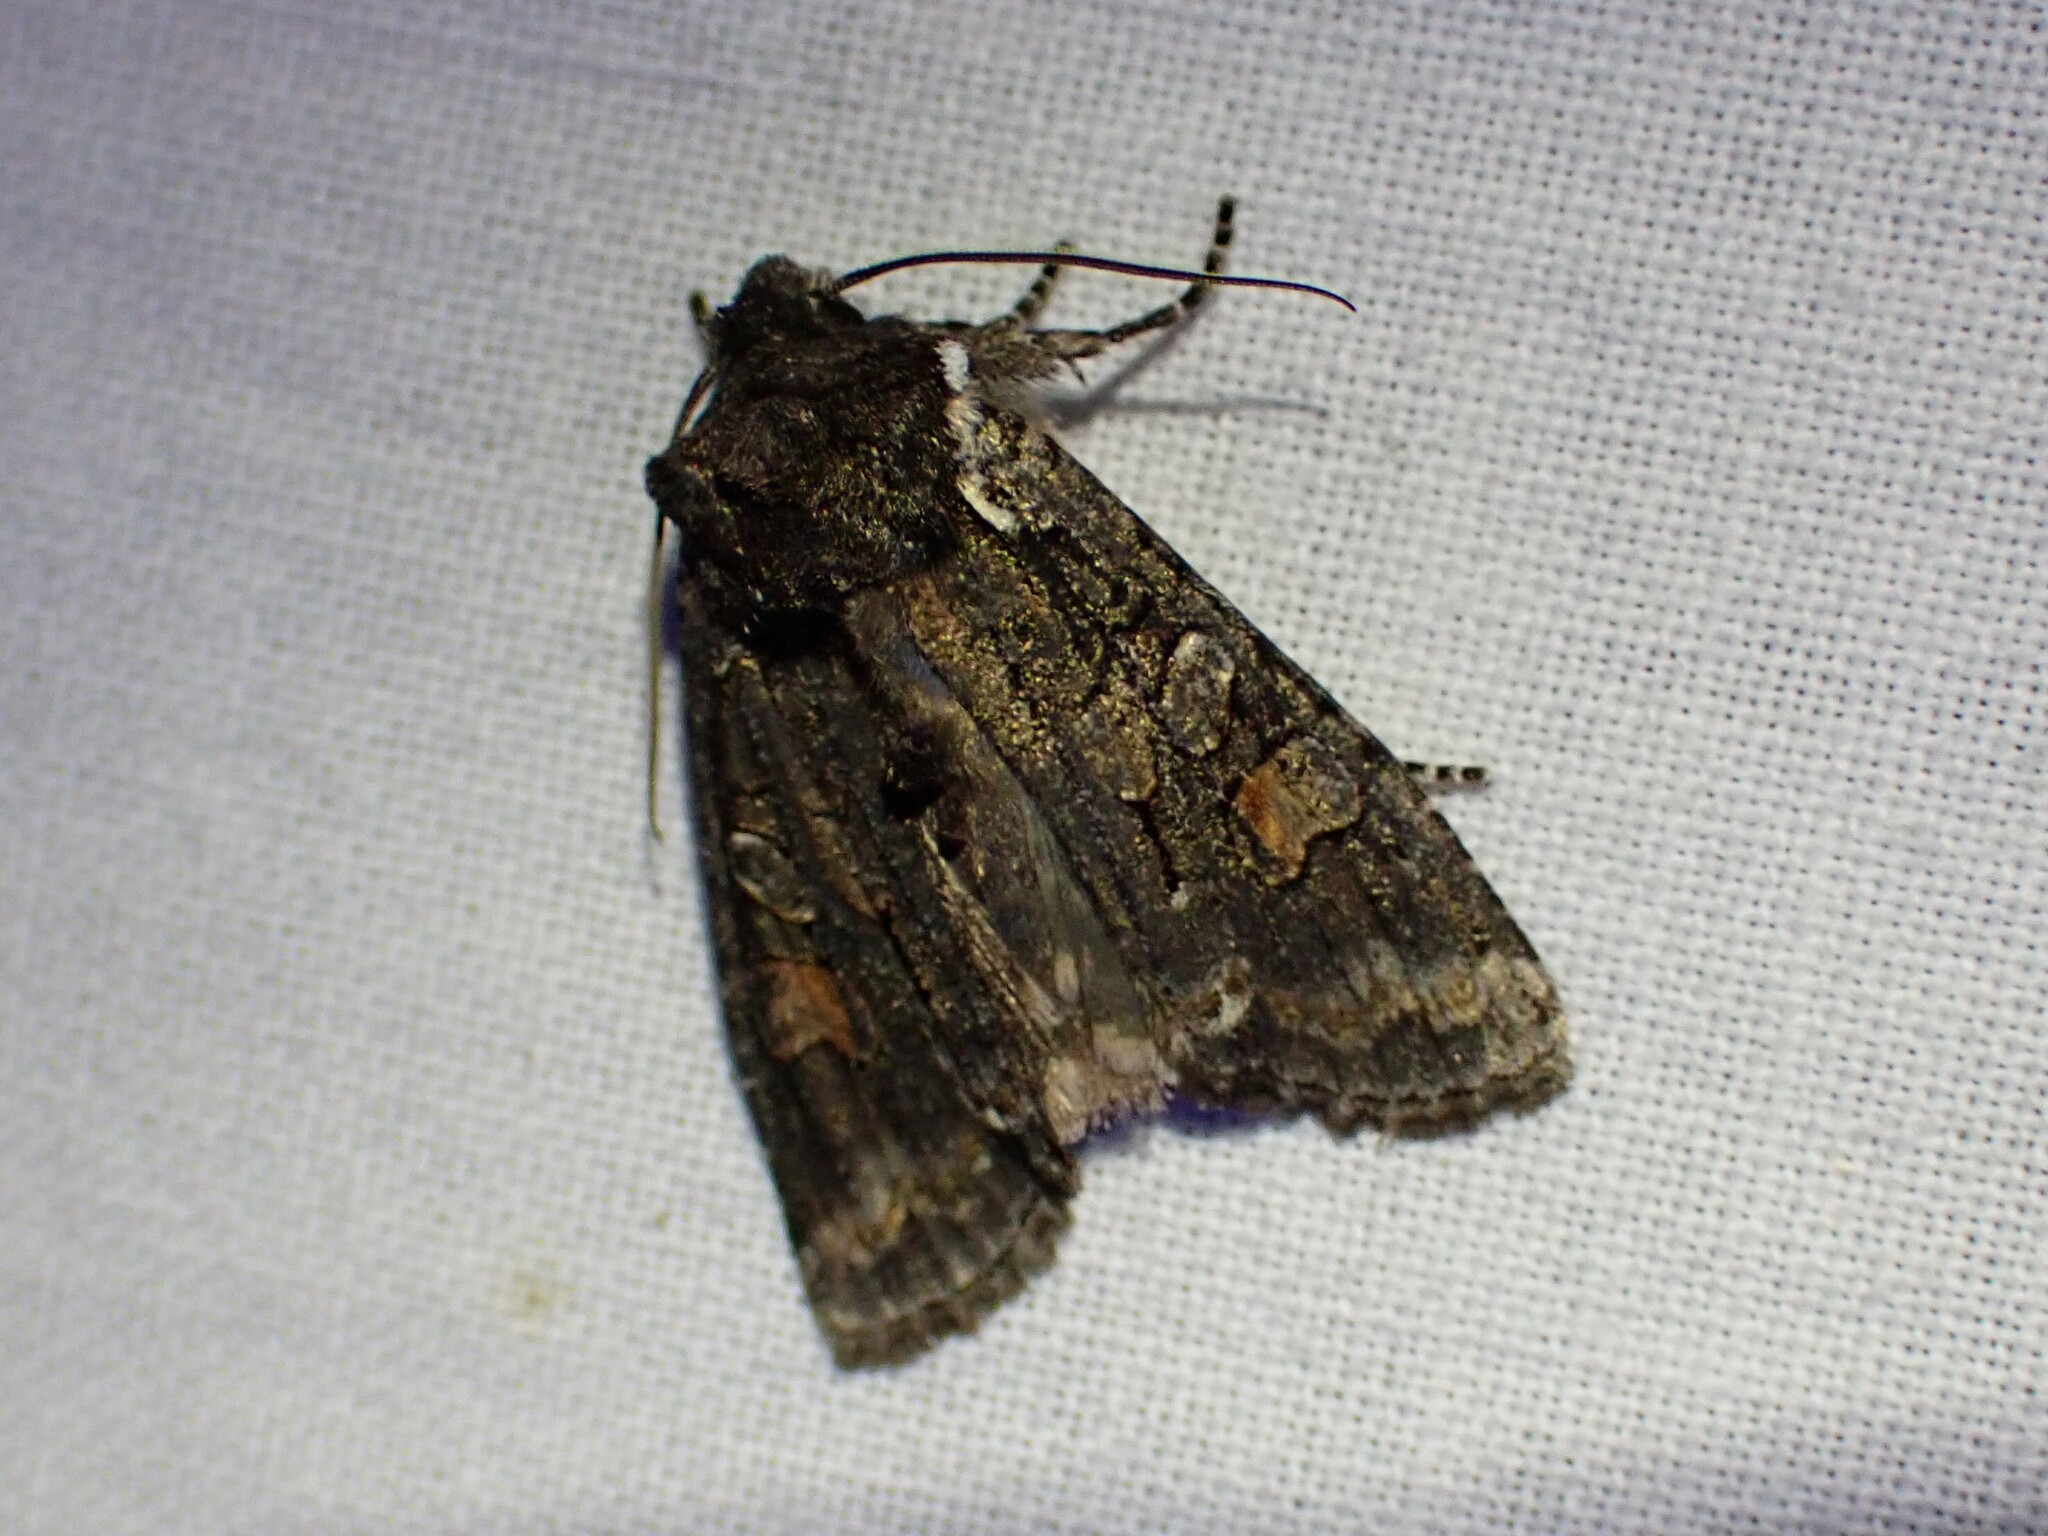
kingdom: Animalia
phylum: Arthropoda
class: Insecta
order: Lepidoptera
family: Noctuidae
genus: Lithophane
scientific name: Lithophane pexata
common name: Plush-naped pinion moth
